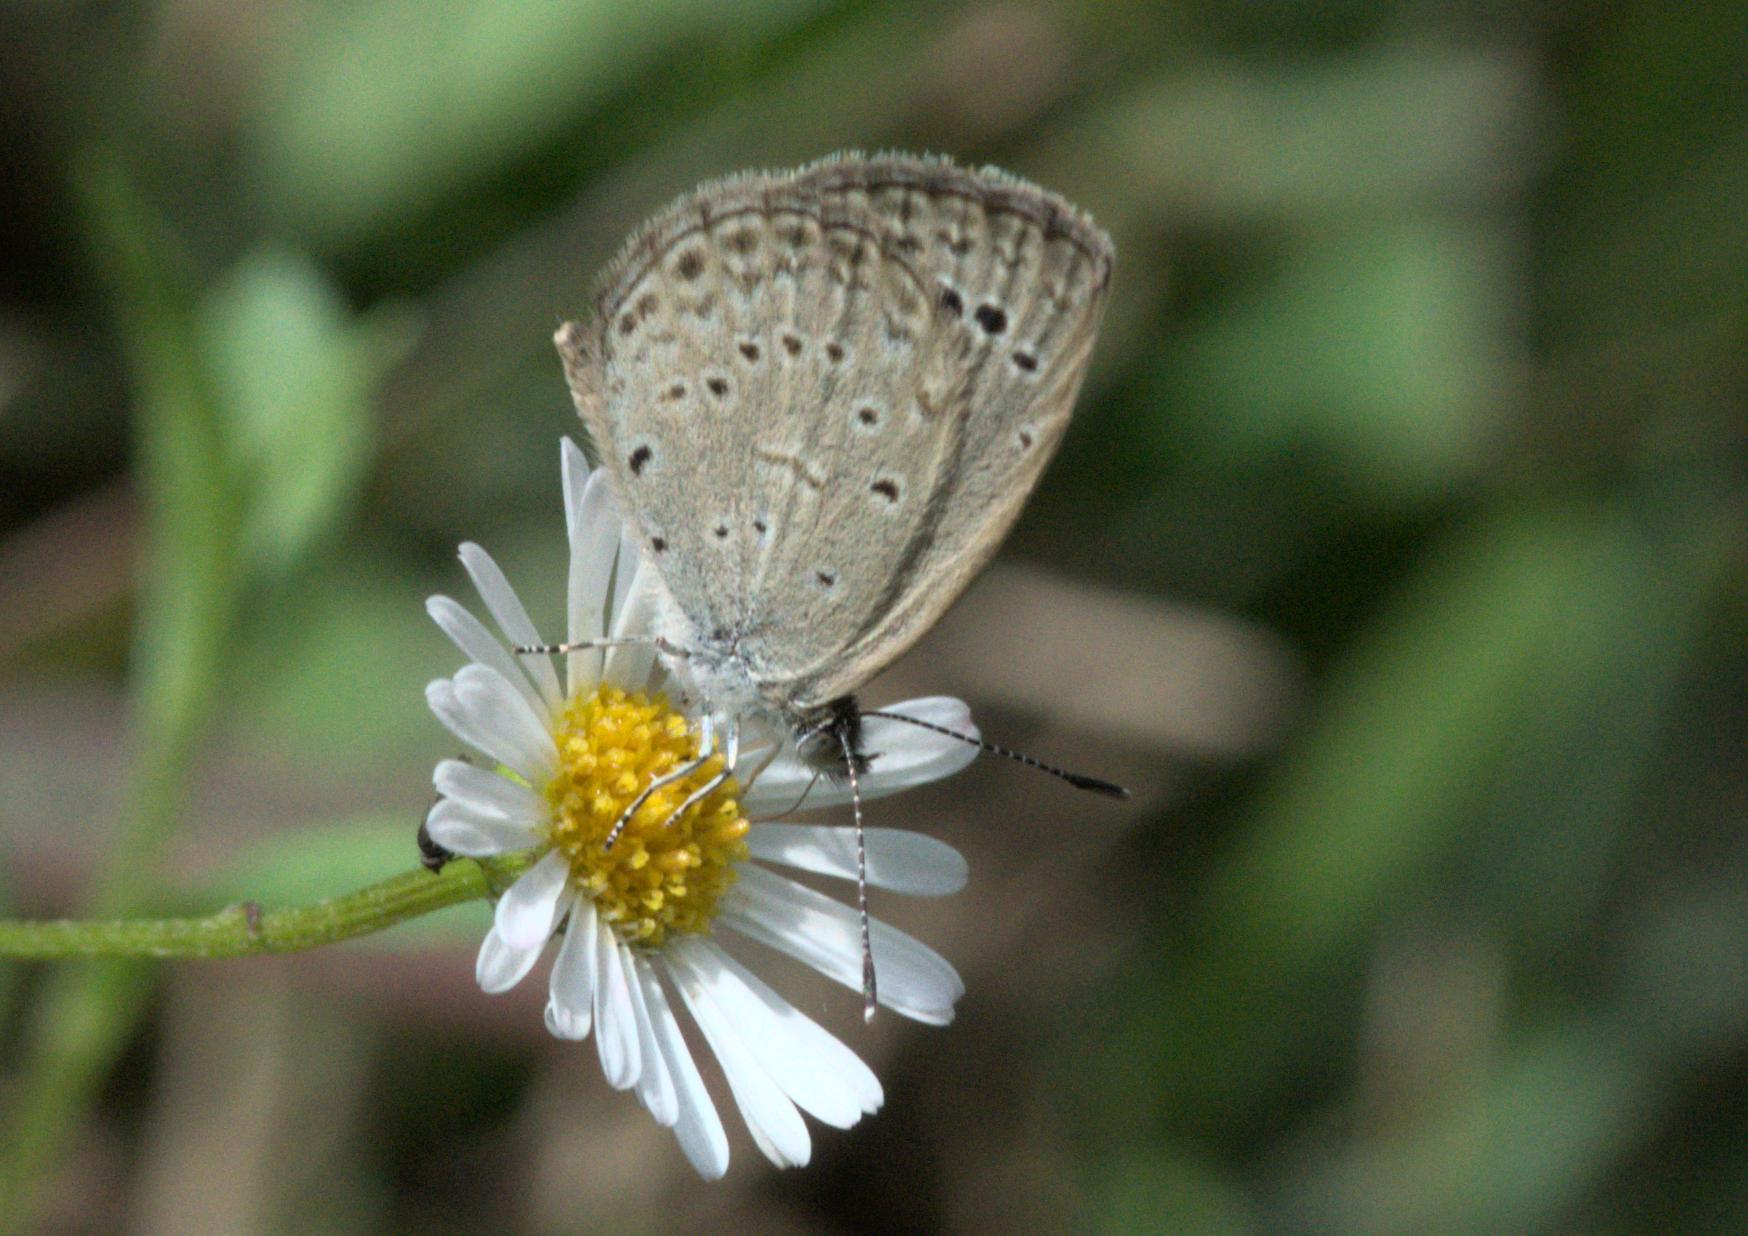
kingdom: Animalia
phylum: Arthropoda
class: Insecta
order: Lepidoptera
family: Lycaenidae
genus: Pseudozizeeria
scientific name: Pseudozizeeria maha
